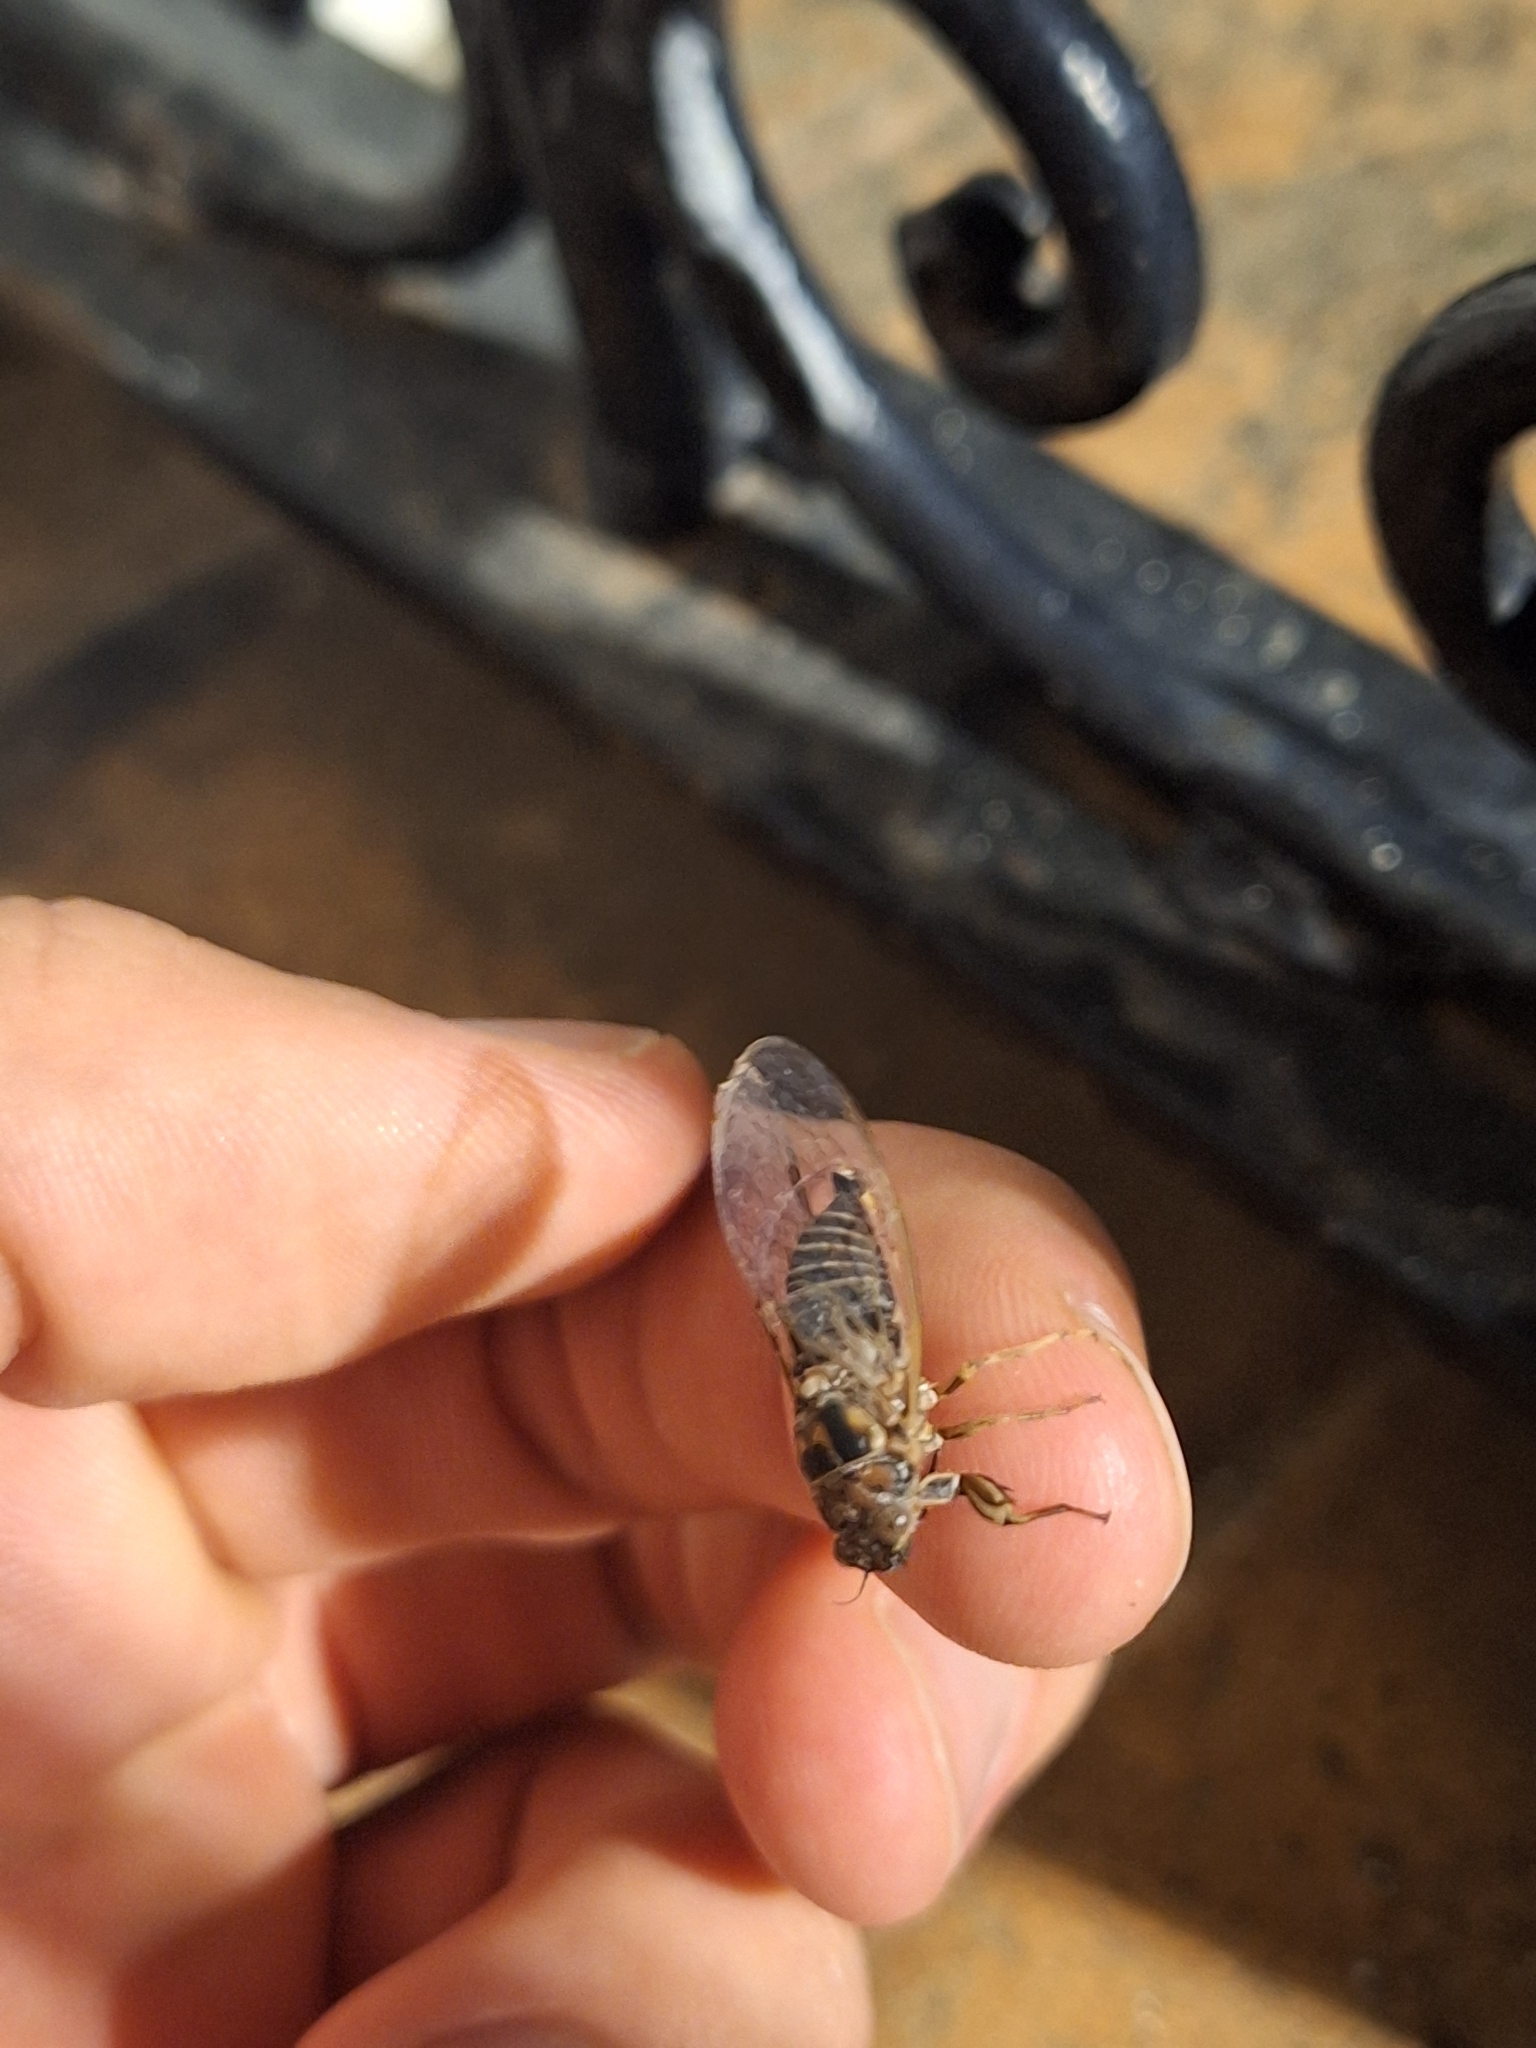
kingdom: Animalia
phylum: Arthropoda
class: Insecta
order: Hemiptera
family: Cicadidae
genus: Tettigettalna
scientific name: Tettigettalna argentata
